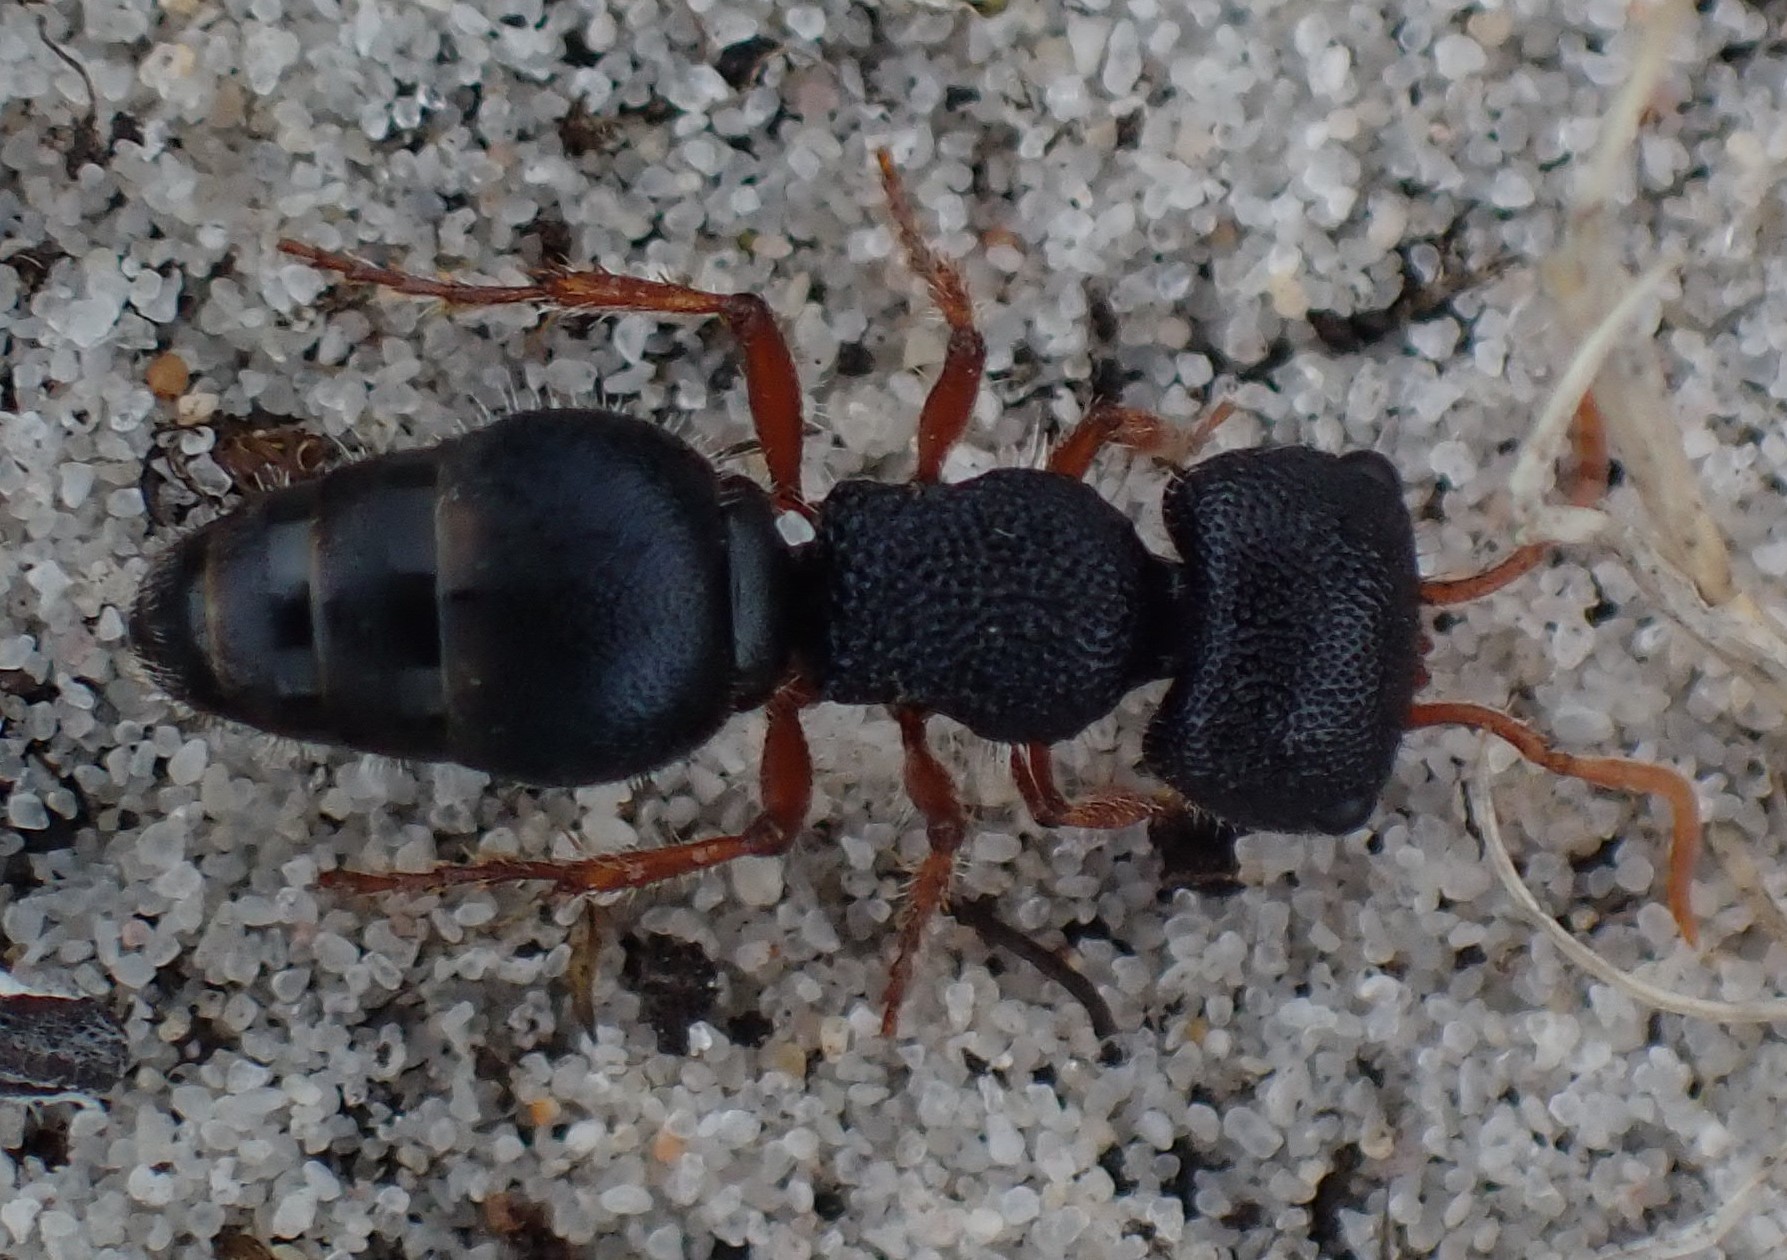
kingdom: Animalia
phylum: Arthropoda
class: Insecta
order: Hymenoptera
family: Mutillidae
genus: Ephutomorpha
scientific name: Ephutomorpha
